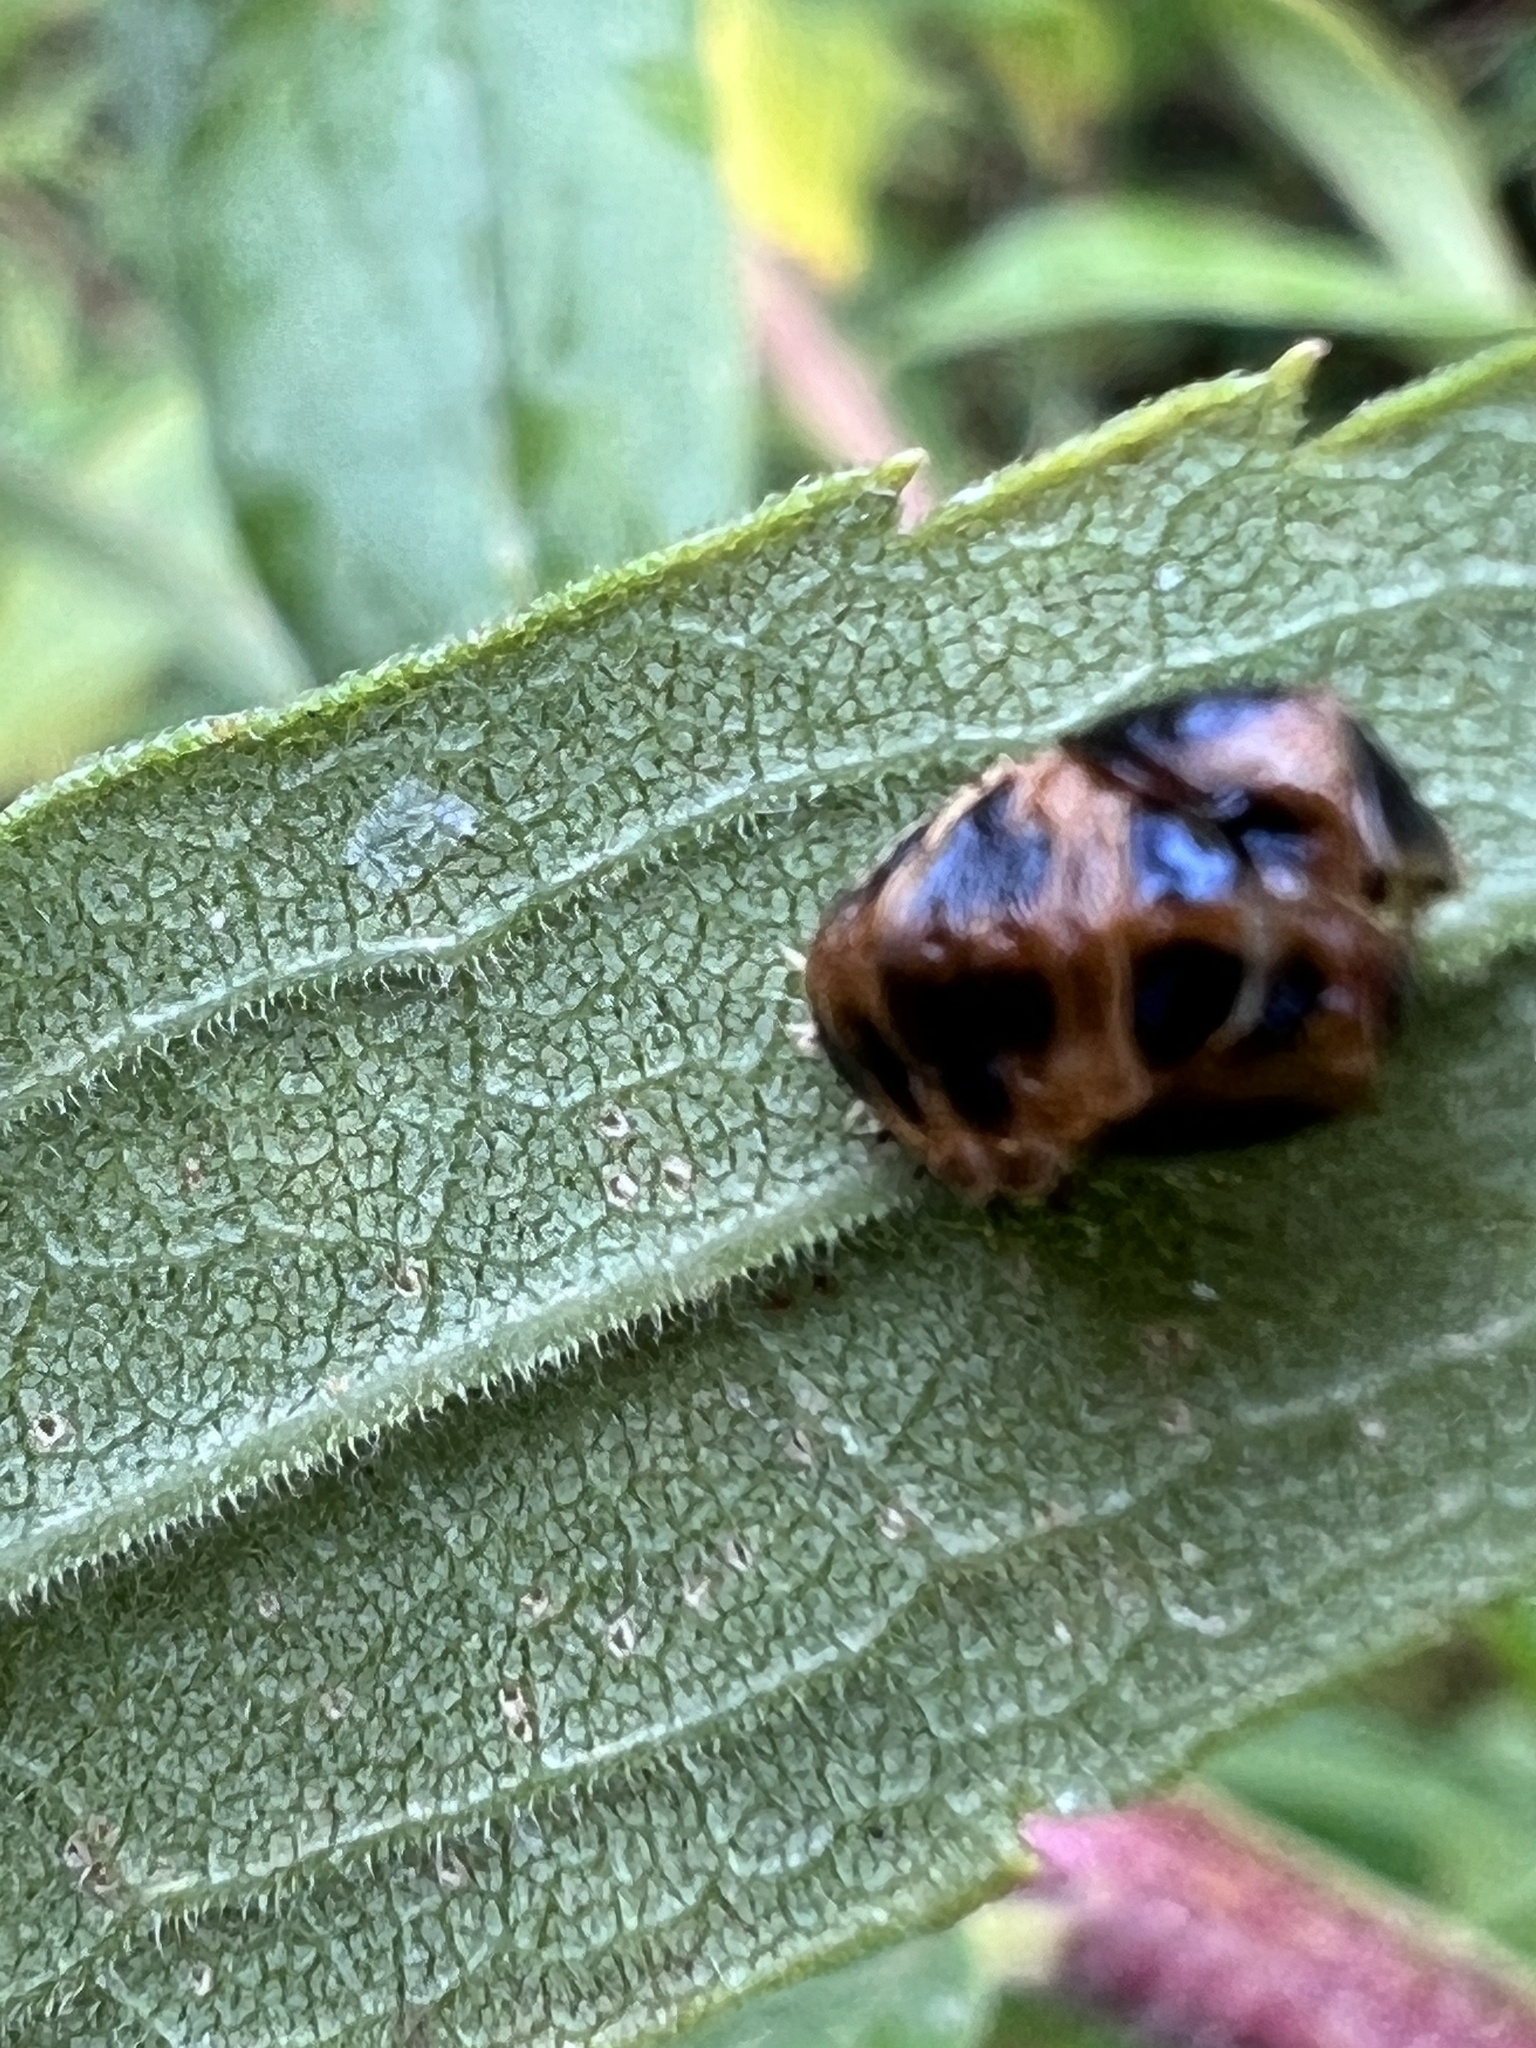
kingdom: Animalia
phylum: Arthropoda
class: Insecta
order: Coleoptera
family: Coccinellidae
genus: Harmonia
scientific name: Harmonia axyridis
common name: Harlequin ladybird
